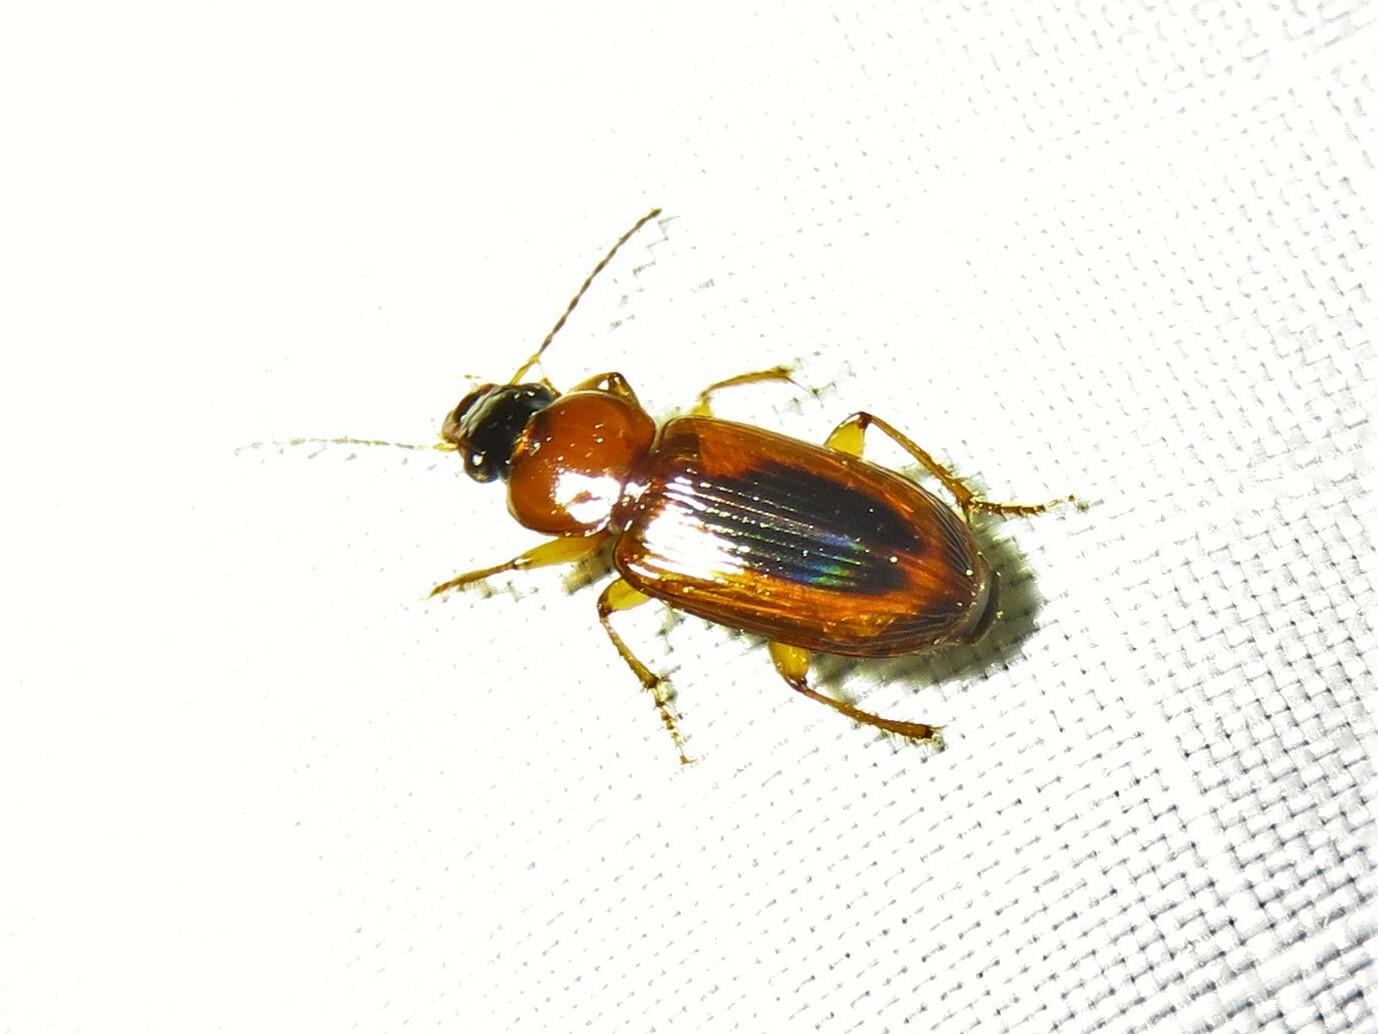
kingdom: Animalia
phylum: Arthropoda
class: Insecta
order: Coleoptera
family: Carabidae
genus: Stenolophus
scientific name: Stenolophus dissimilis
